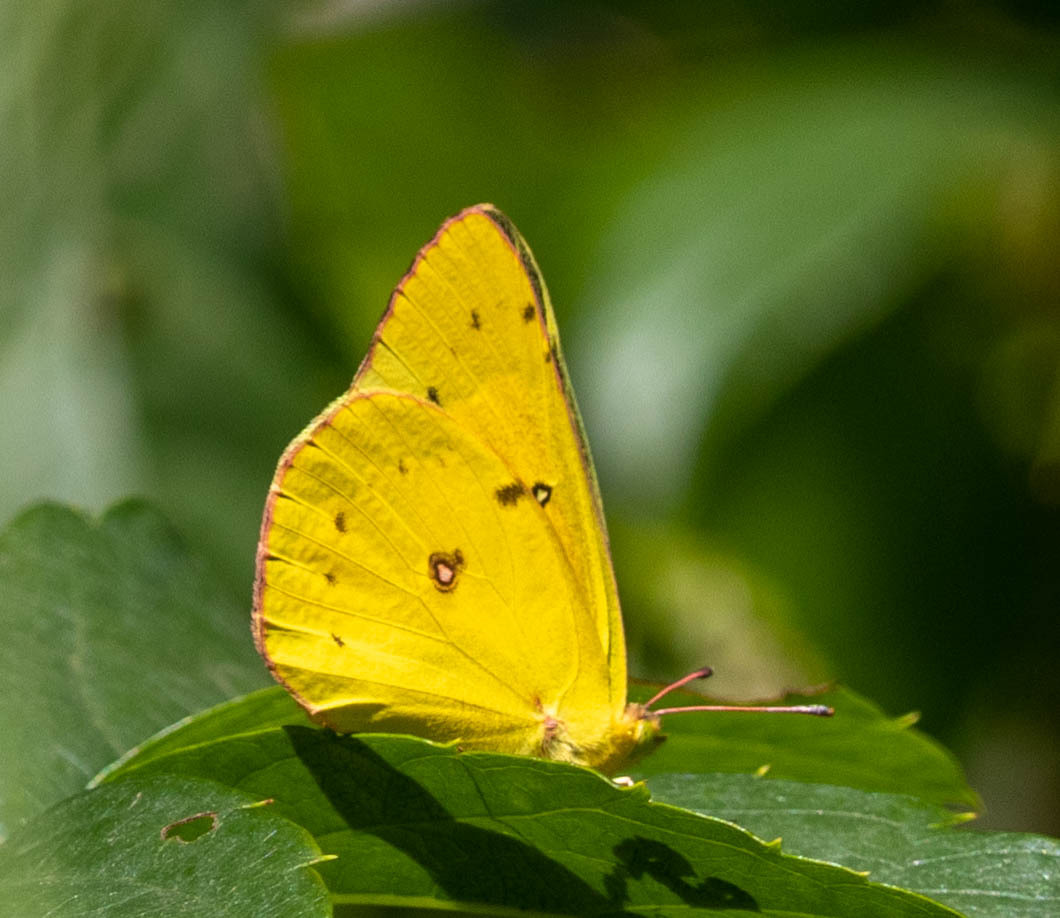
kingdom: Animalia
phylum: Arthropoda
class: Insecta
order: Lepidoptera
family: Pieridae
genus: Colias
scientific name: Colias eurytheme
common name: Alfalfa butterfly
